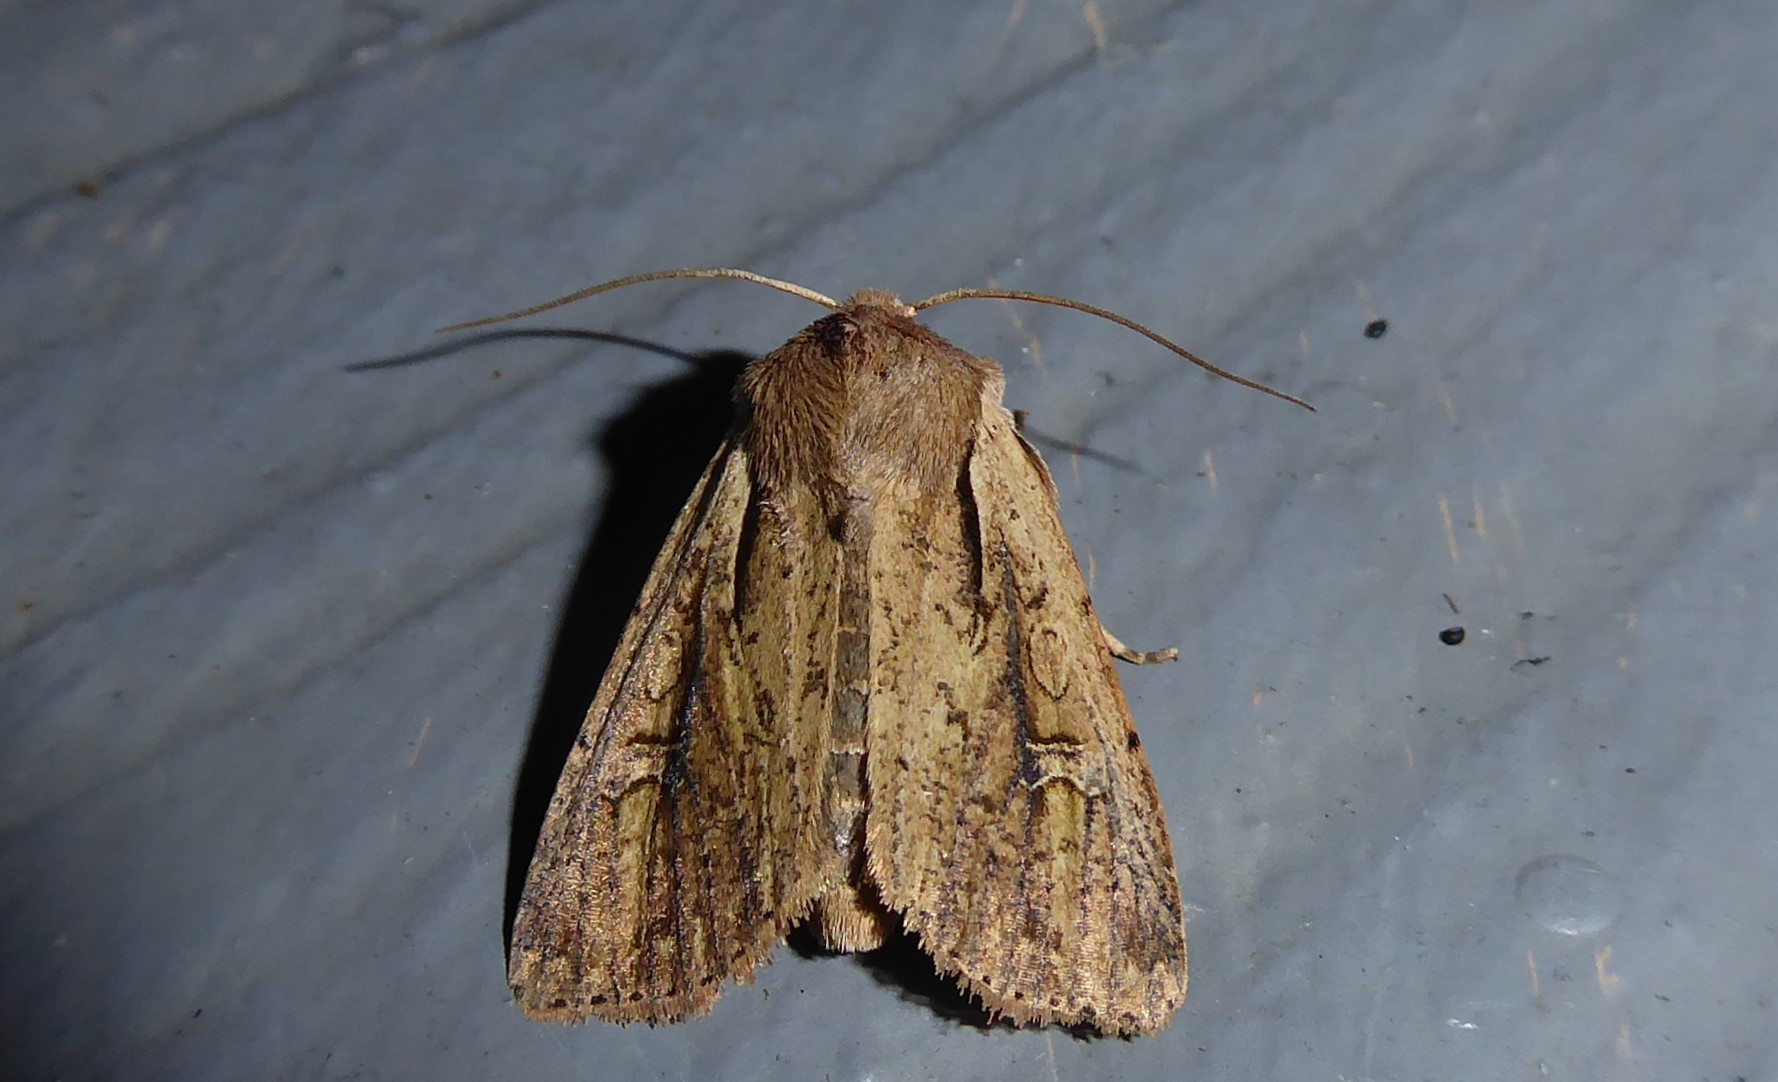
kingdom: Animalia
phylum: Arthropoda
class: Insecta
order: Lepidoptera
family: Noctuidae
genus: Ichneutica
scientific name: Ichneutica atristriga
